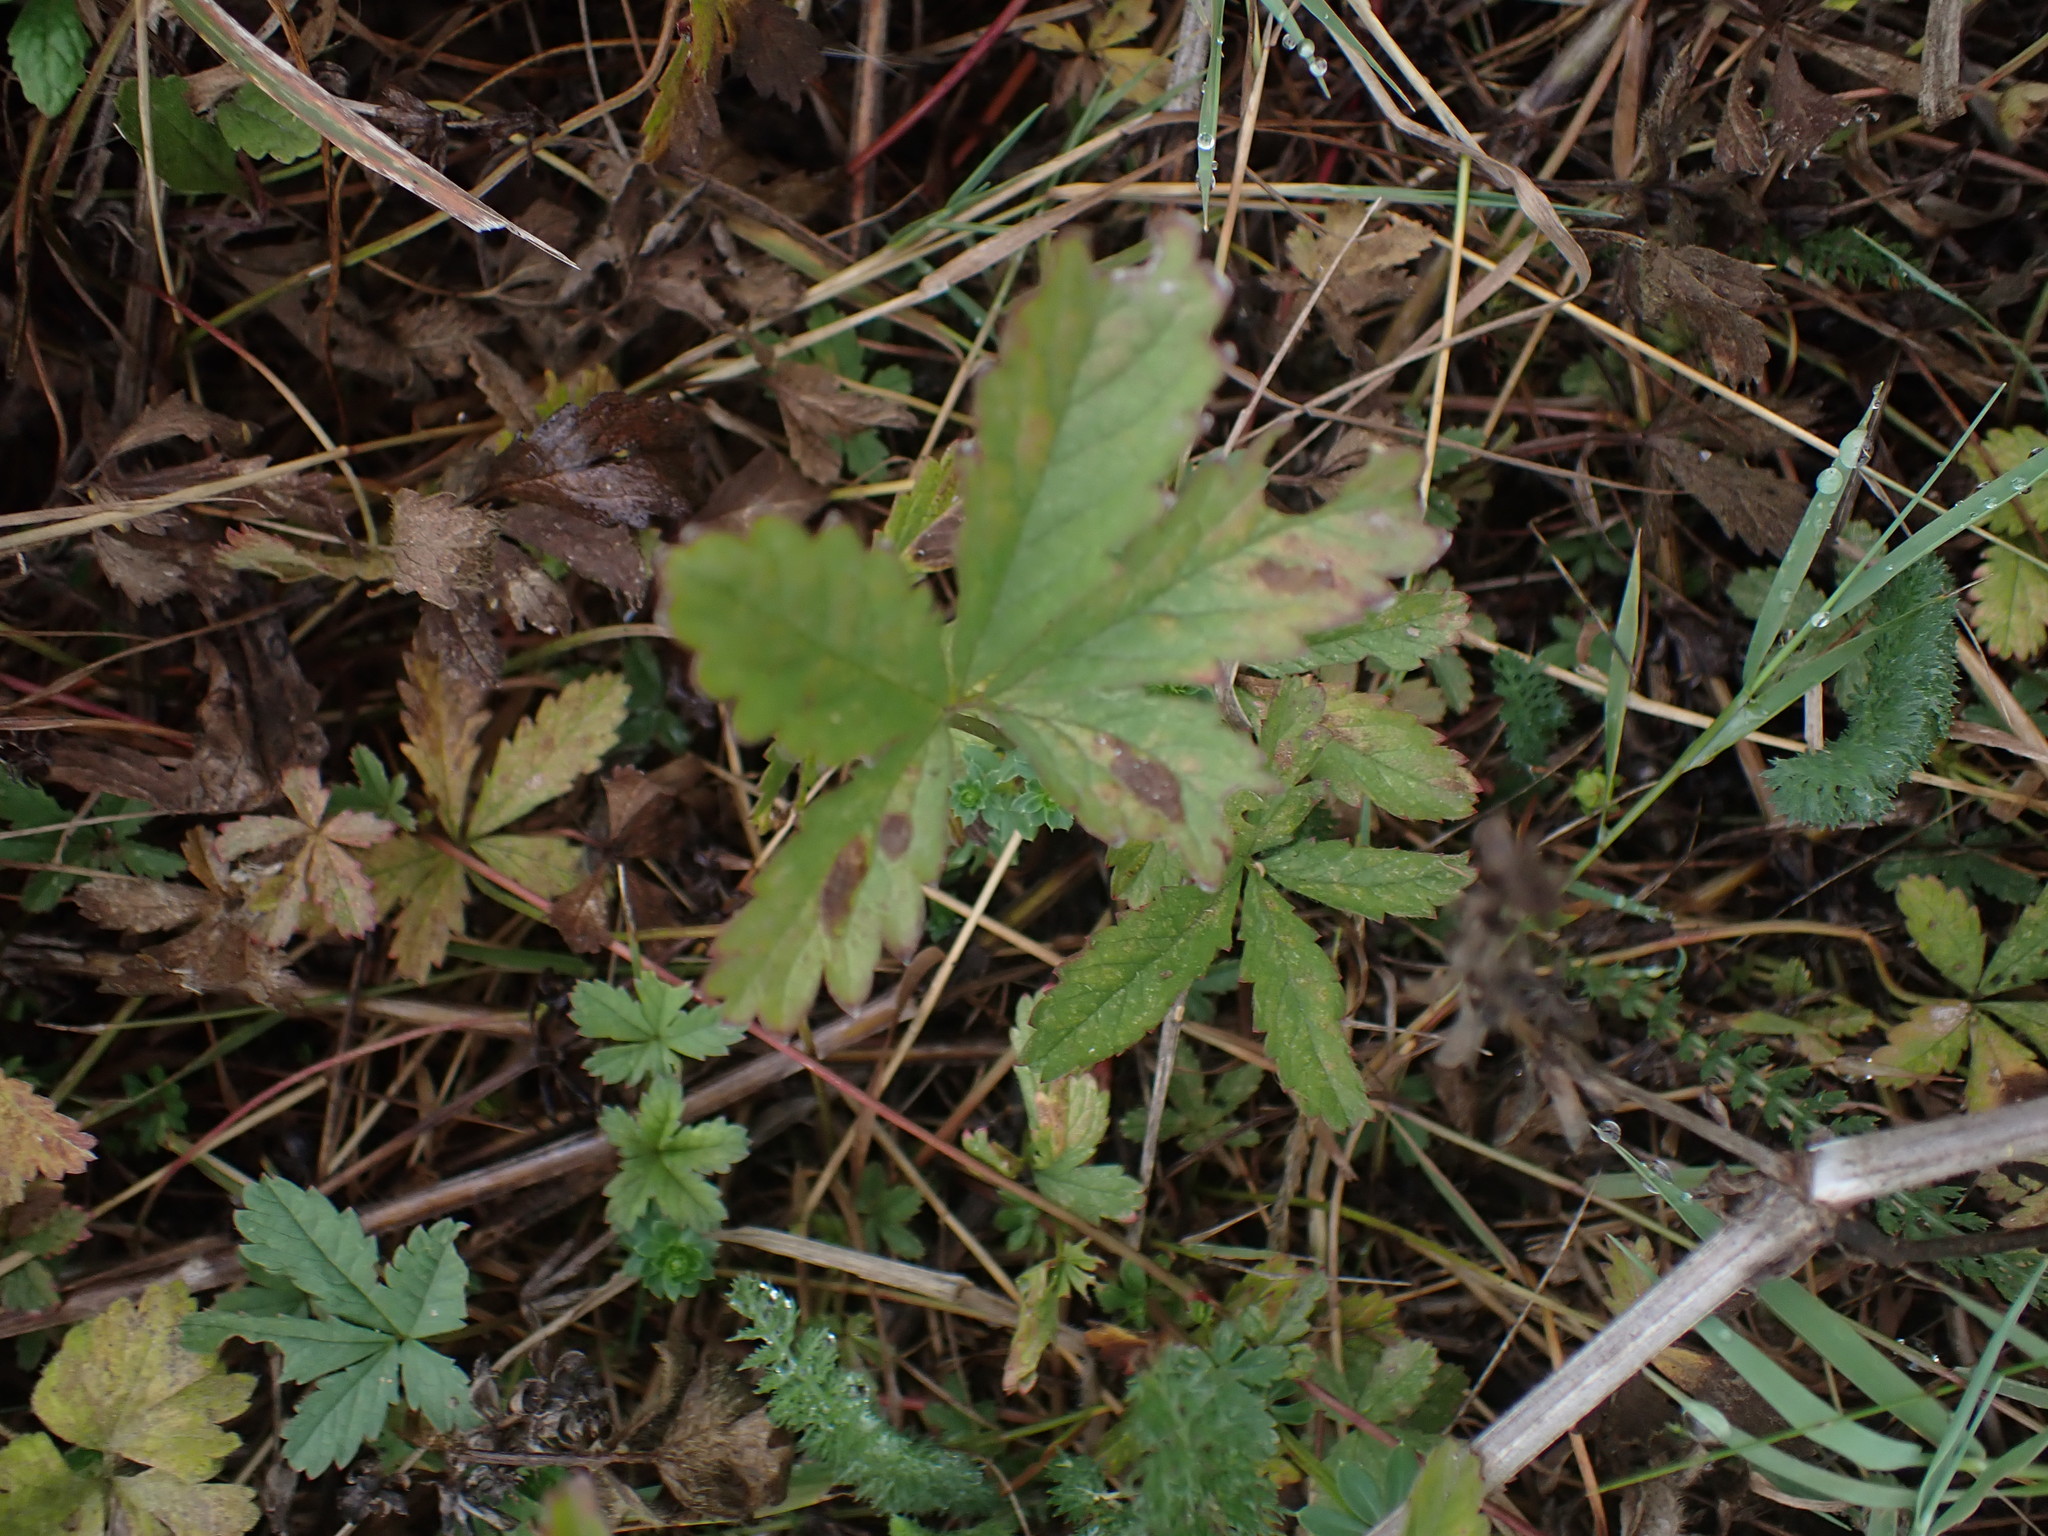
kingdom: Plantae
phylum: Tracheophyta
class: Magnoliopsida
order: Rosales
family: Rosaceae
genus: Potentilla
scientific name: Potentilla reptans
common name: Creeping cinquefoil
